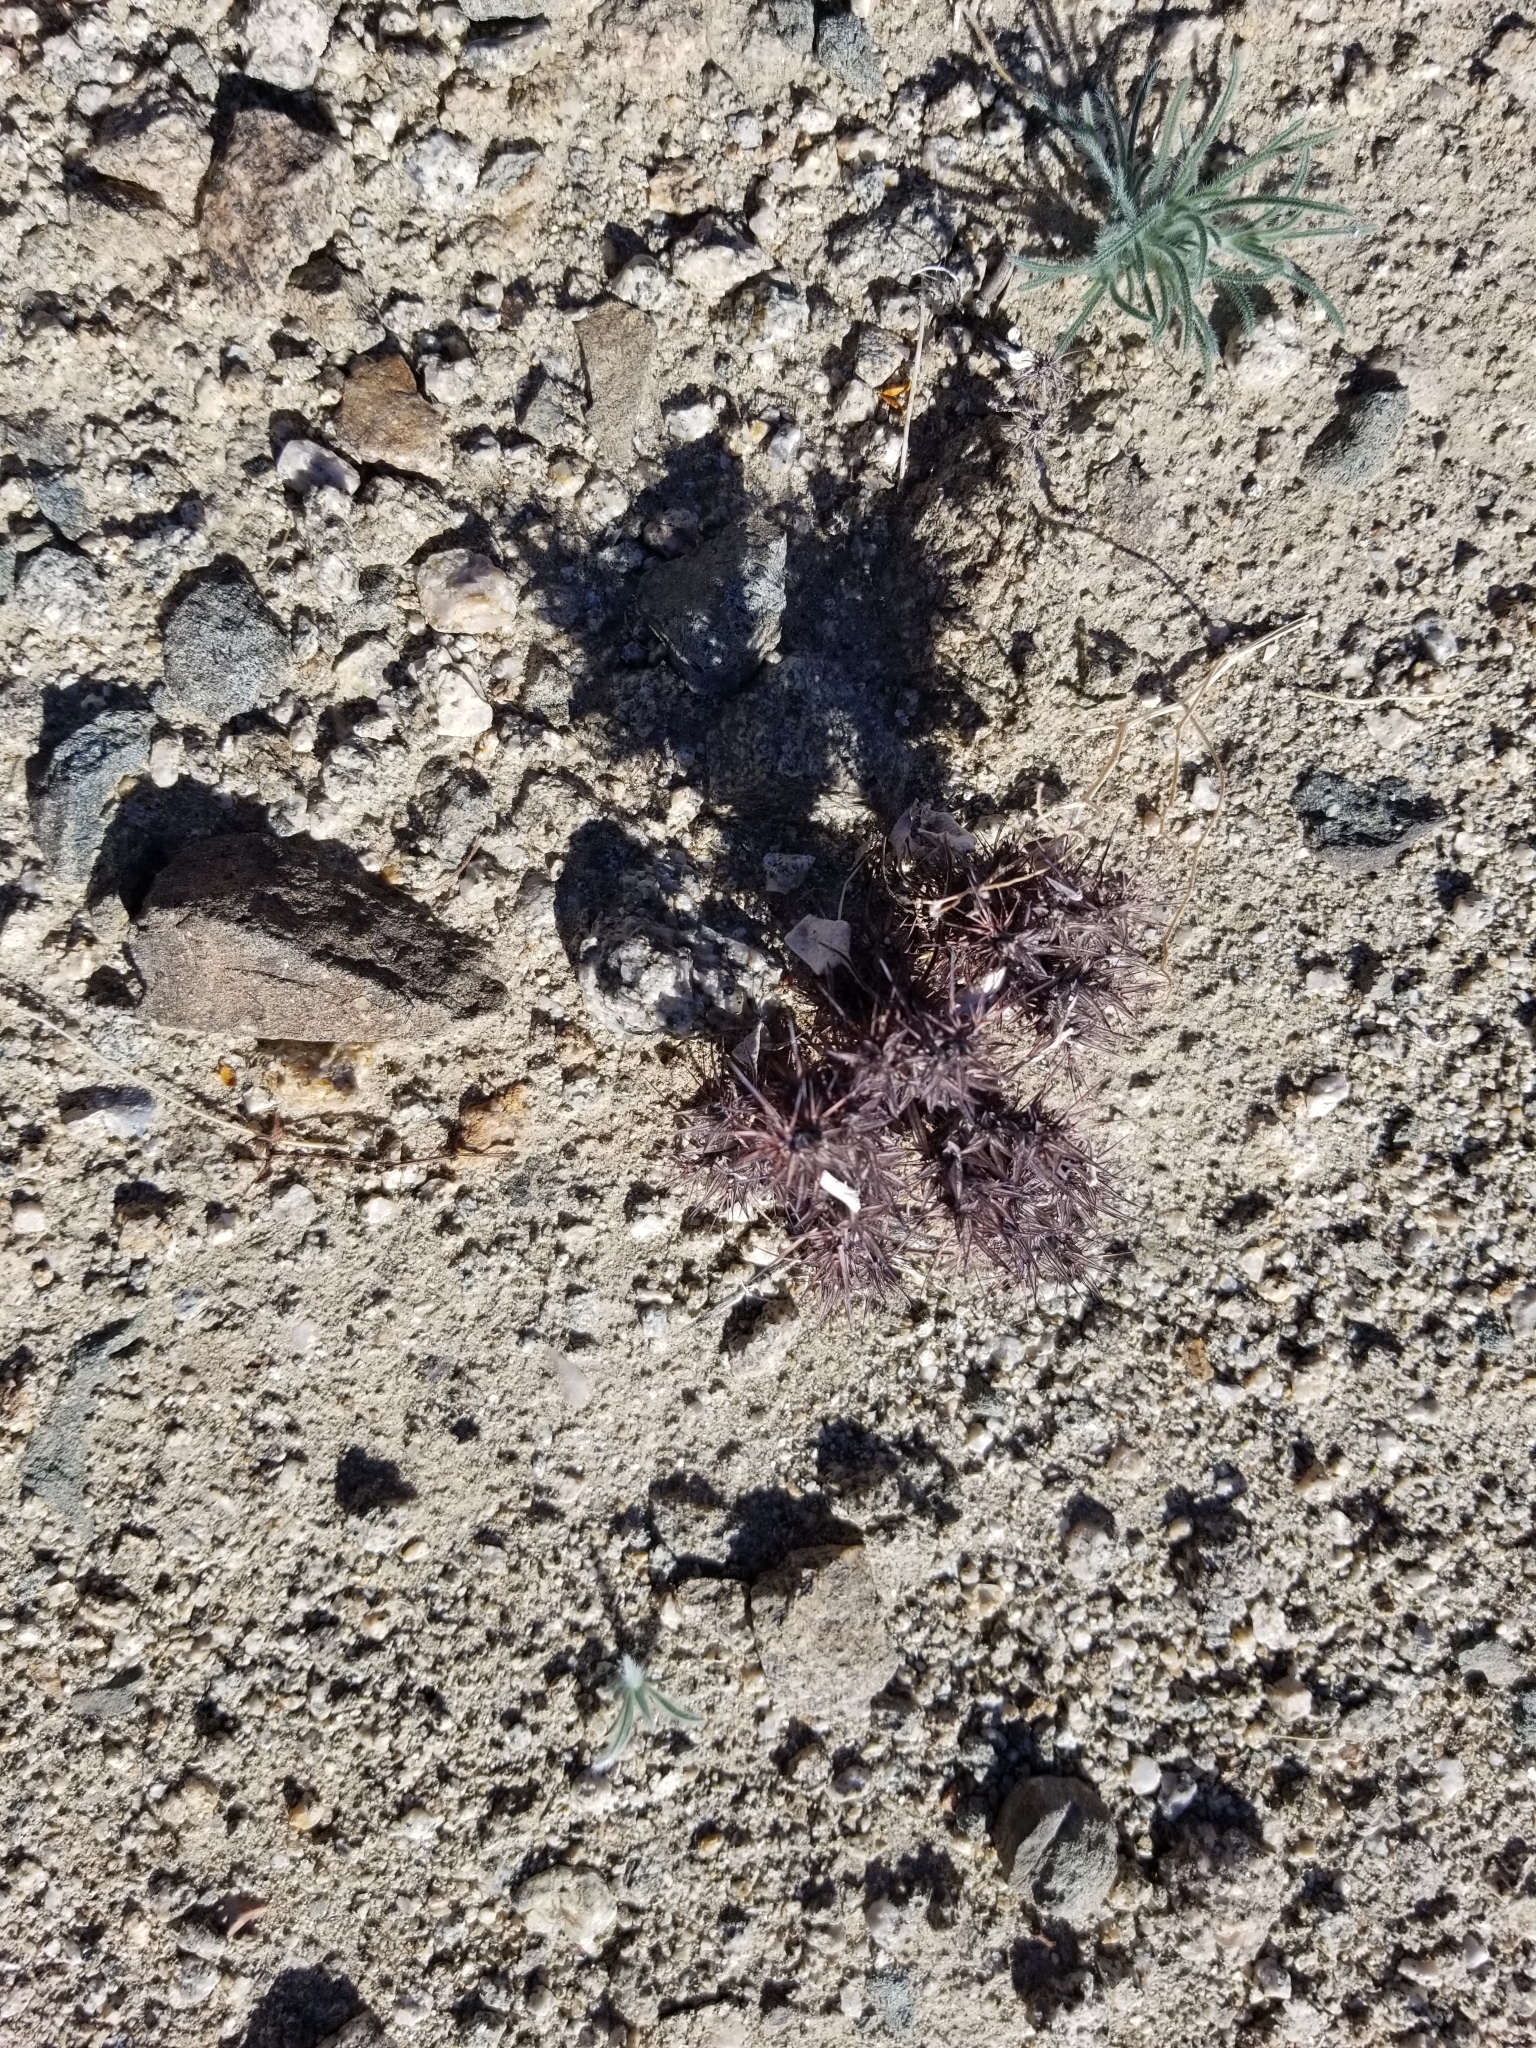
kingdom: Plantae
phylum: Tracheophyta
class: Magnoliopsida
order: Caryophyllales
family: Polygonaceae
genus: Chorizanthe
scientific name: Chorizanthe rigida
